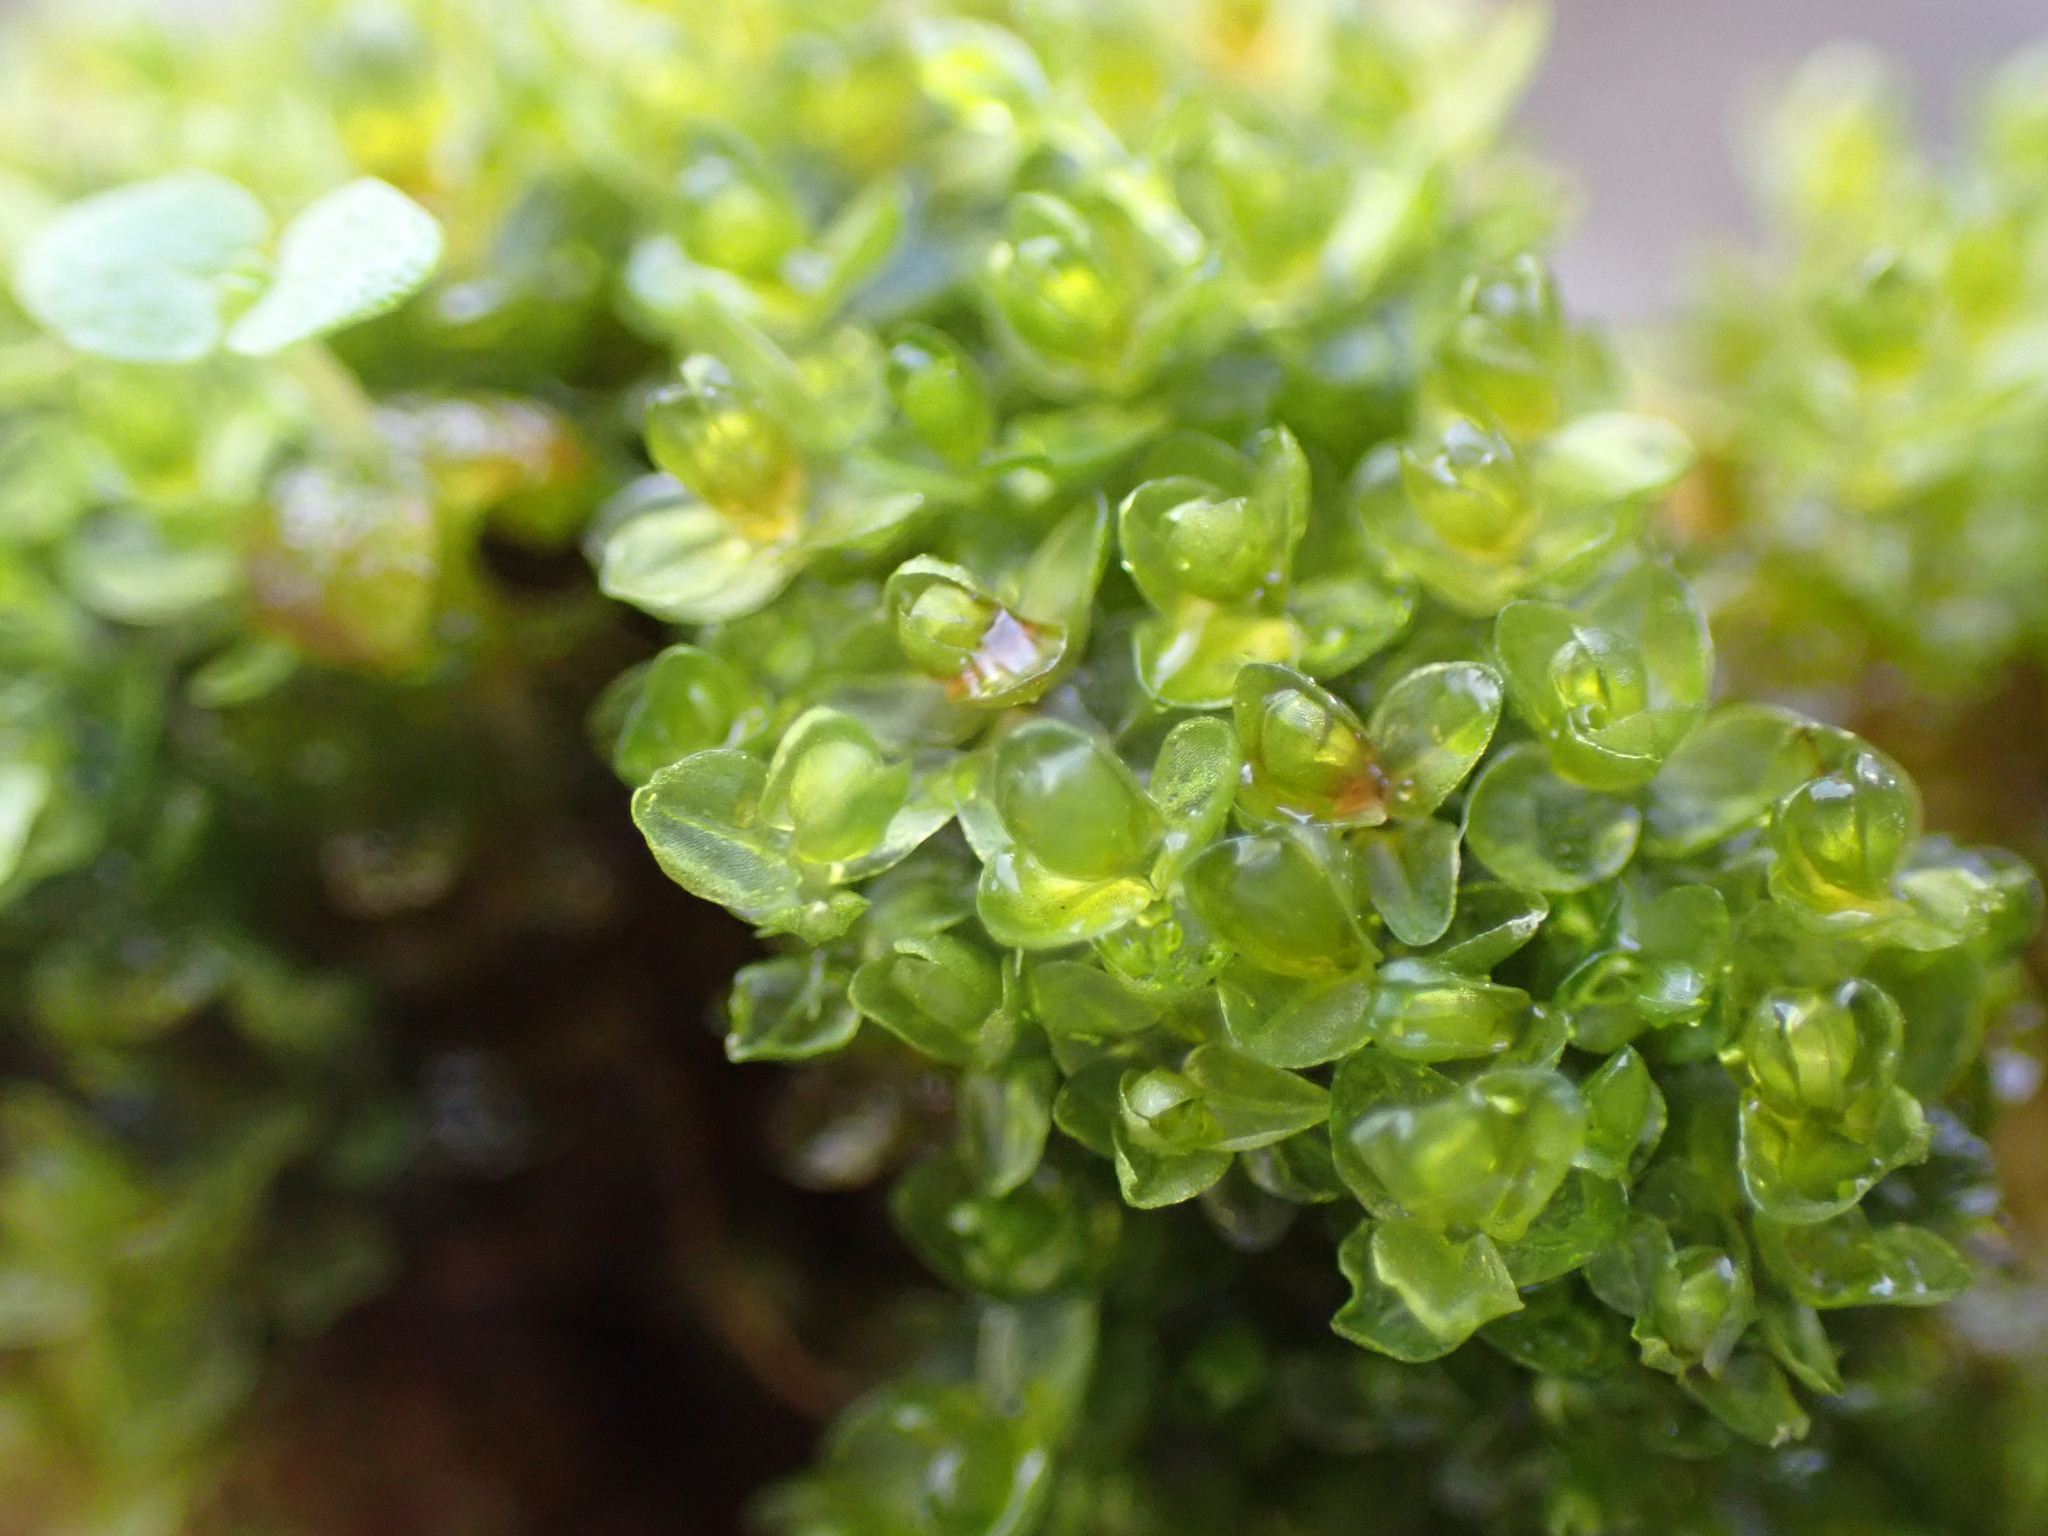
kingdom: Plantae
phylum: Bryophyta
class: Bryopsida
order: Bryales
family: Bryaceae
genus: Plagiobryoides
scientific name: Plagiobryoides incrassatolimbata
